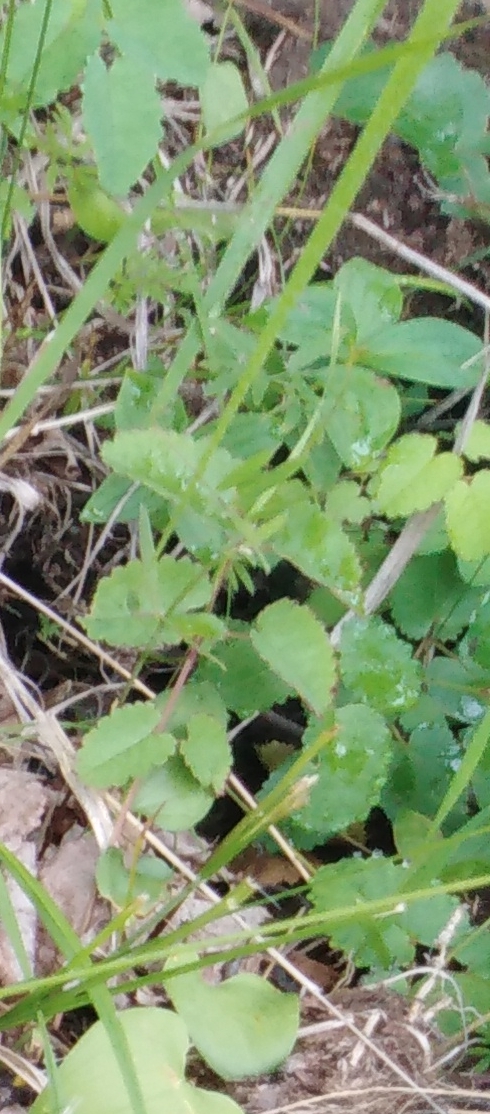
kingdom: Plantae
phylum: Tracheophyta
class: Magnoliopsida
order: Rosales
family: Rosaceae
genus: Sanguisorba
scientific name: Sanguisorba officinalis
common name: Great burnet
